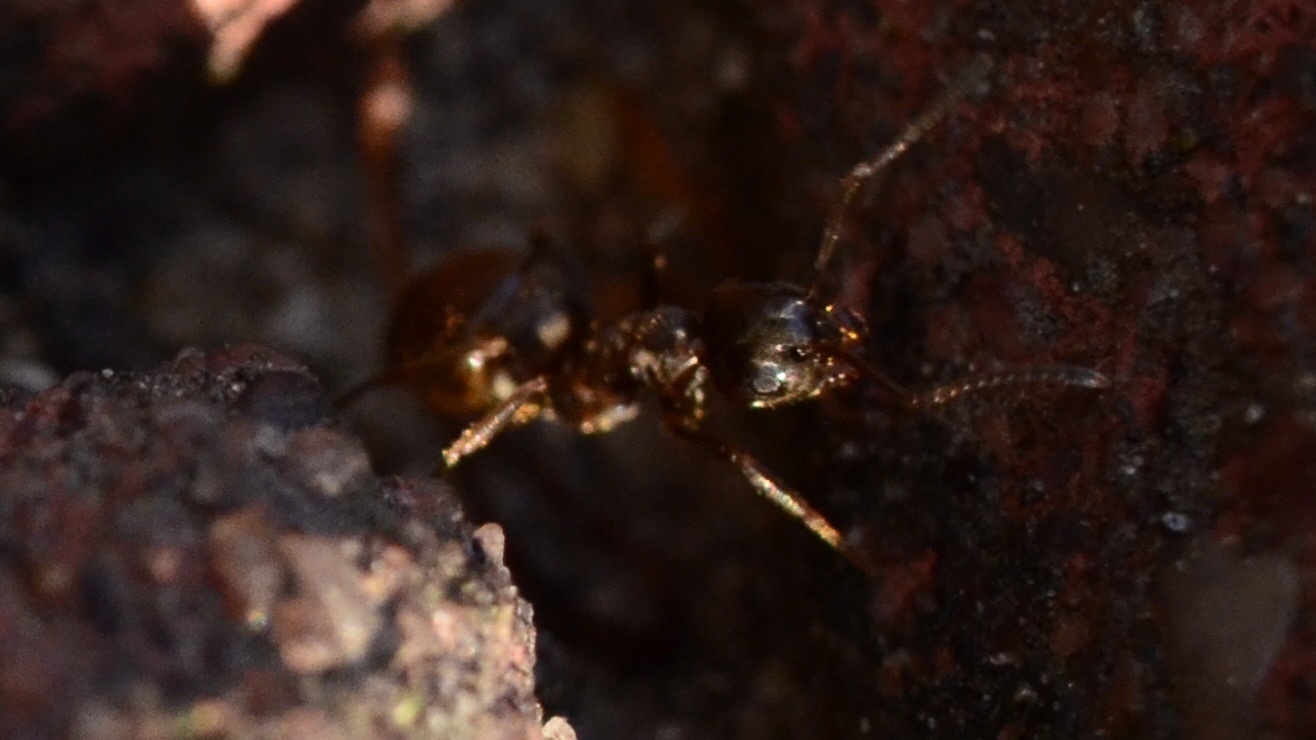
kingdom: Animalia
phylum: Arthropoda
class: Insecta
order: Hymenoptera
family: Formicidae
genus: Lasius
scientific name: Lasius
